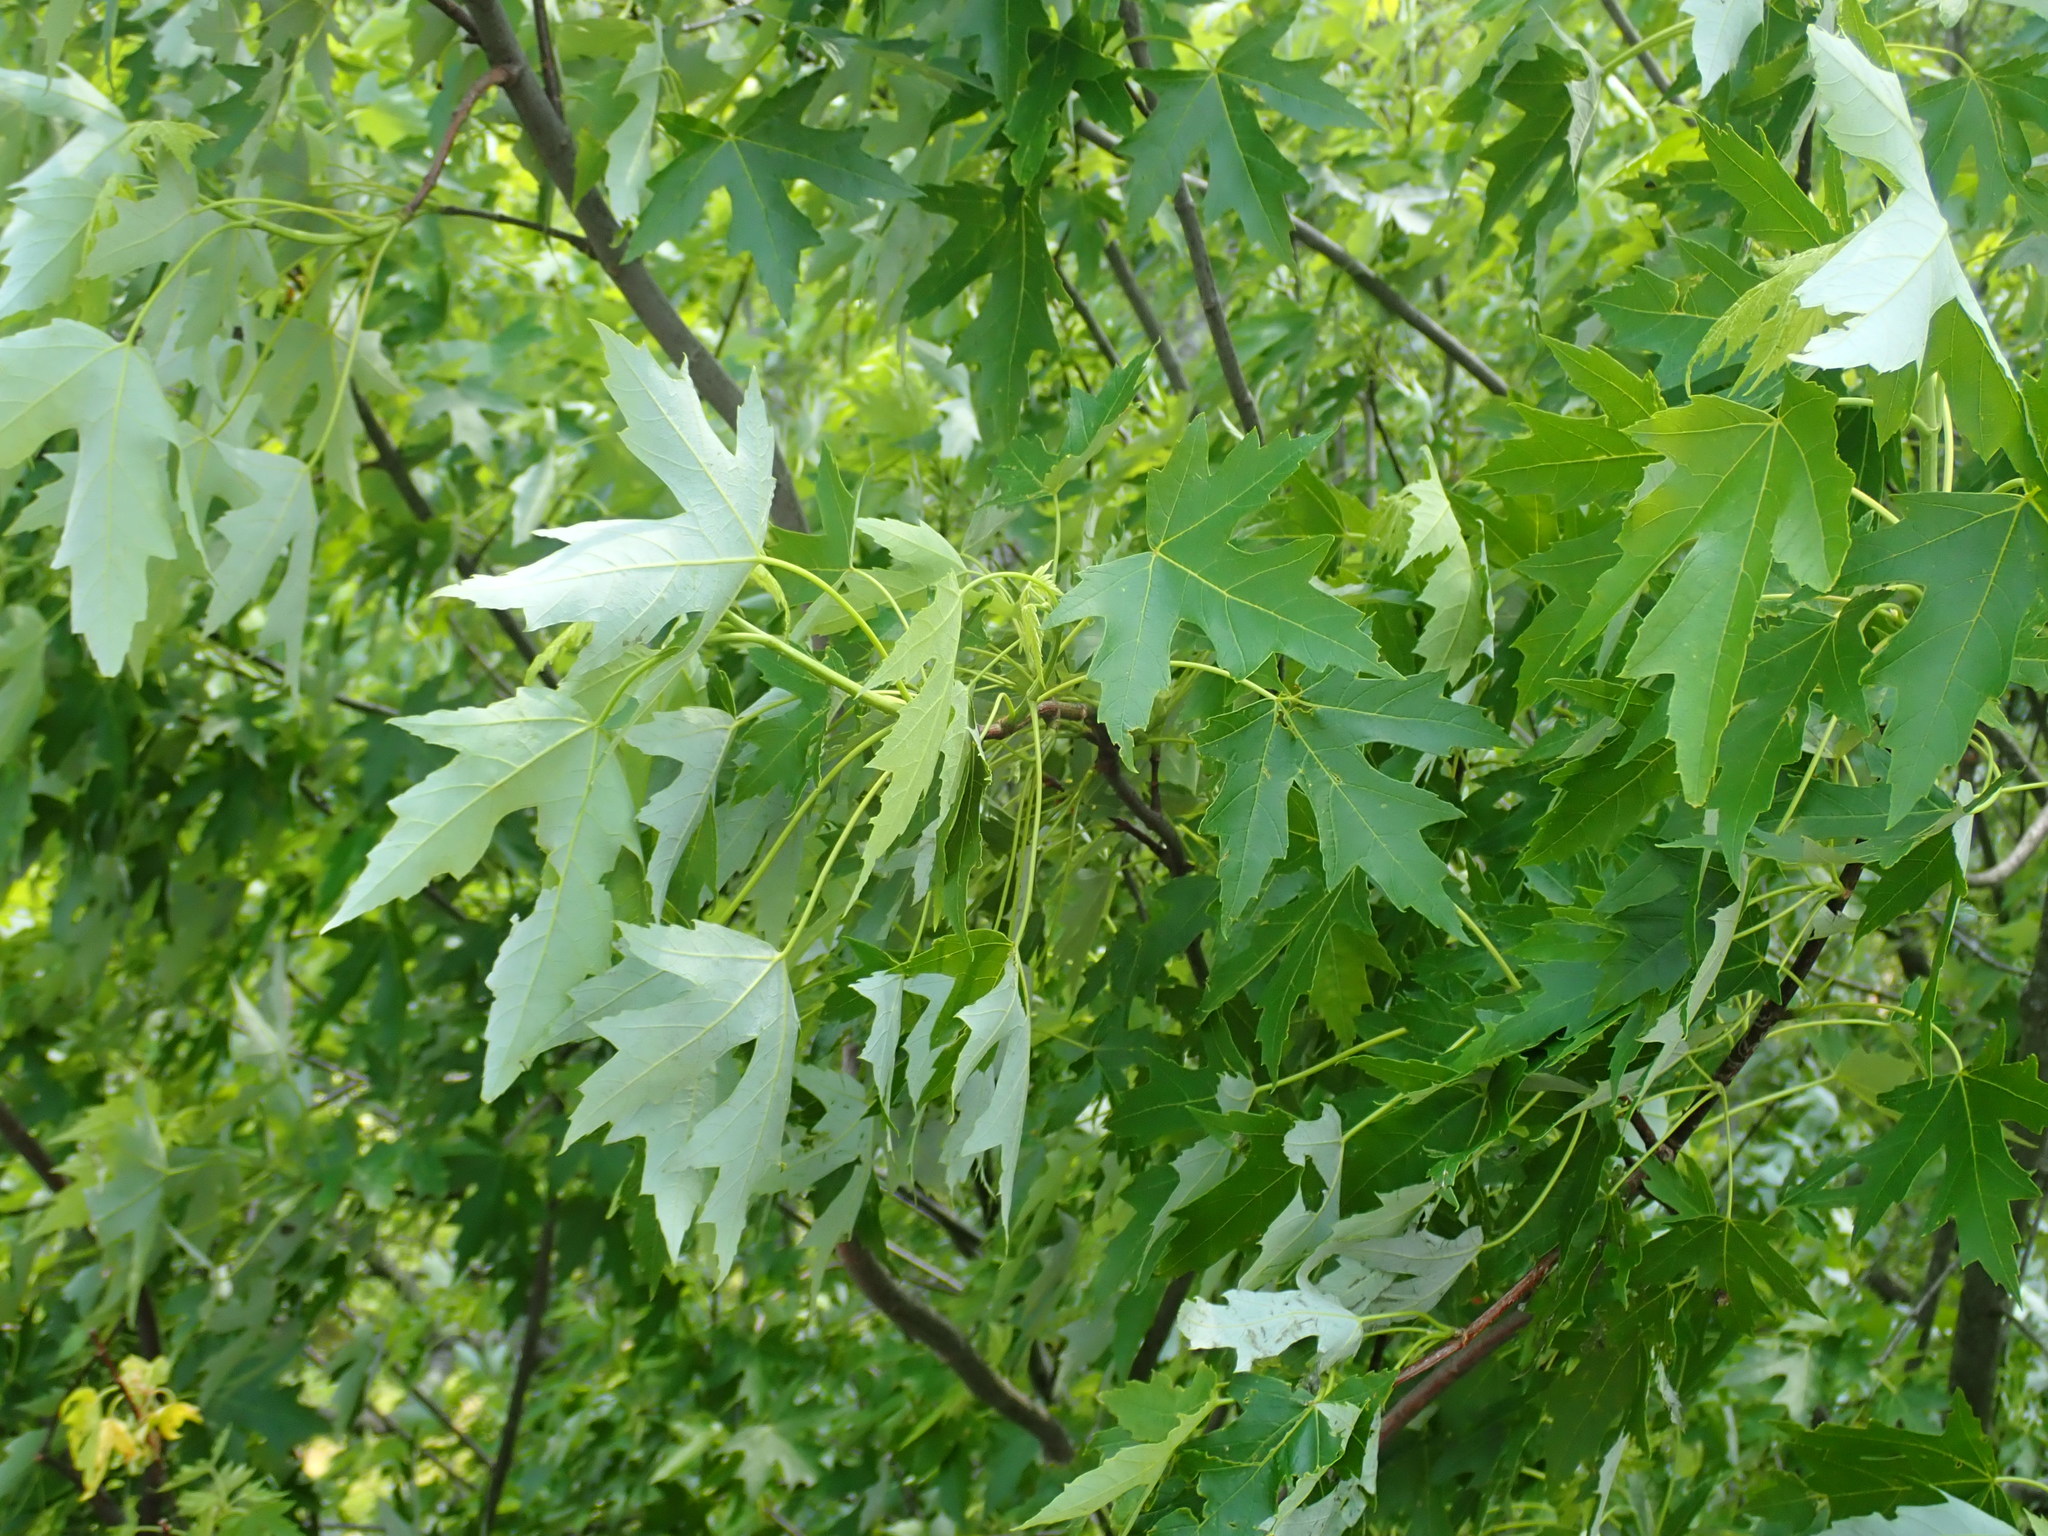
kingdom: Plantae
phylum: Tracheophyta
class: Magnoliopsida
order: Sapindales
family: Sapindaceae
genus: Acer
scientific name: Acer saccharinum
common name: Silver maple
